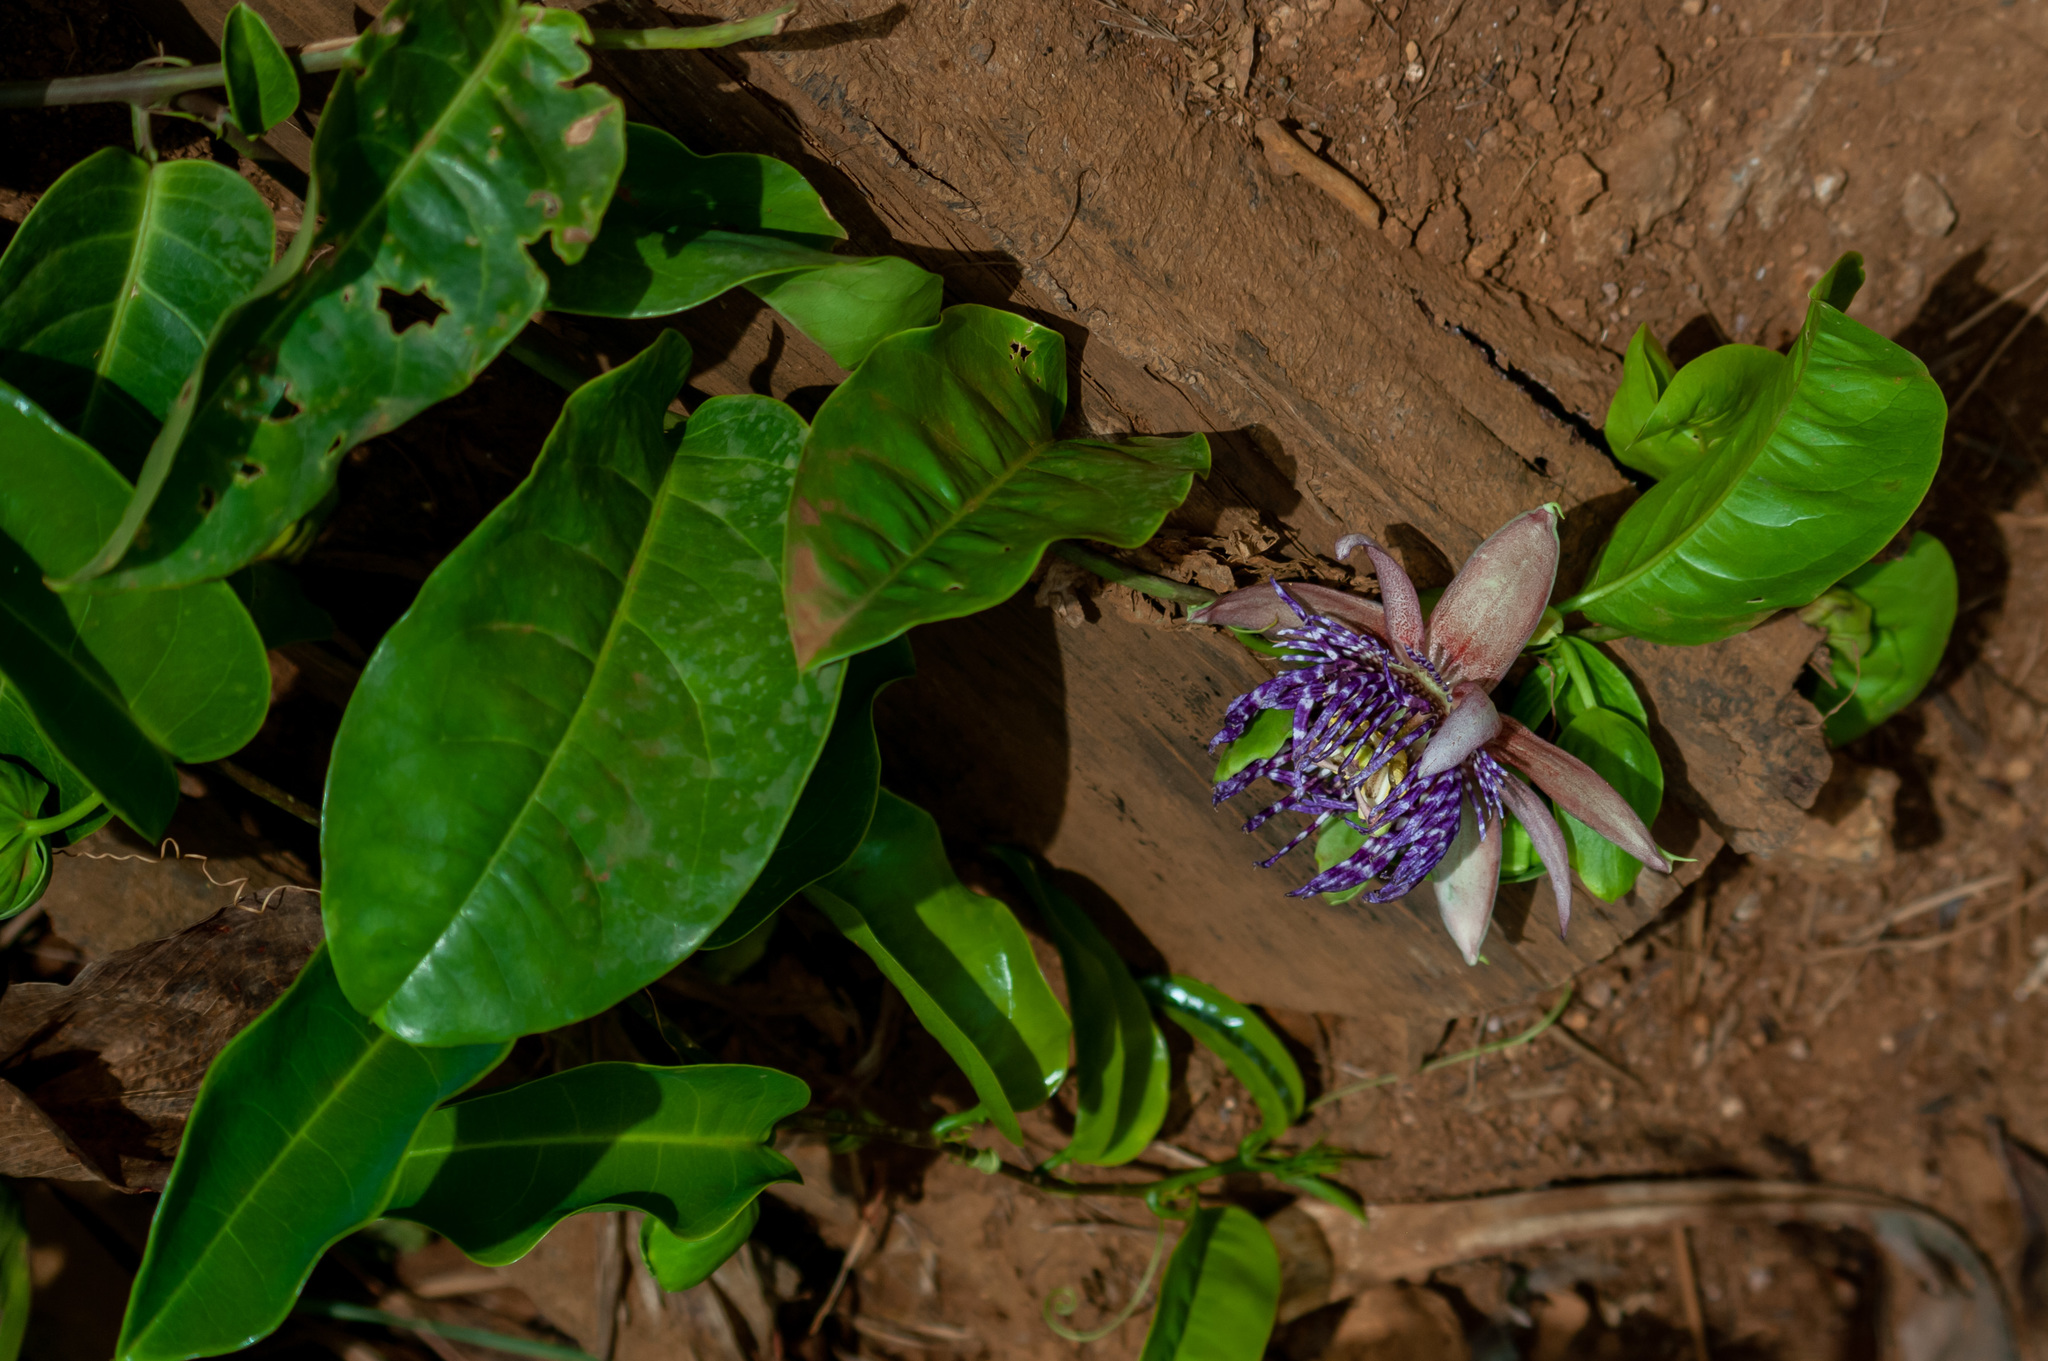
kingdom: Plantae
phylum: Tracheophyta
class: Magnoliopsida
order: Malpighiales
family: Passifloraceae
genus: Passiflora
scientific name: Passiflora laurifolia
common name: Bell apple
